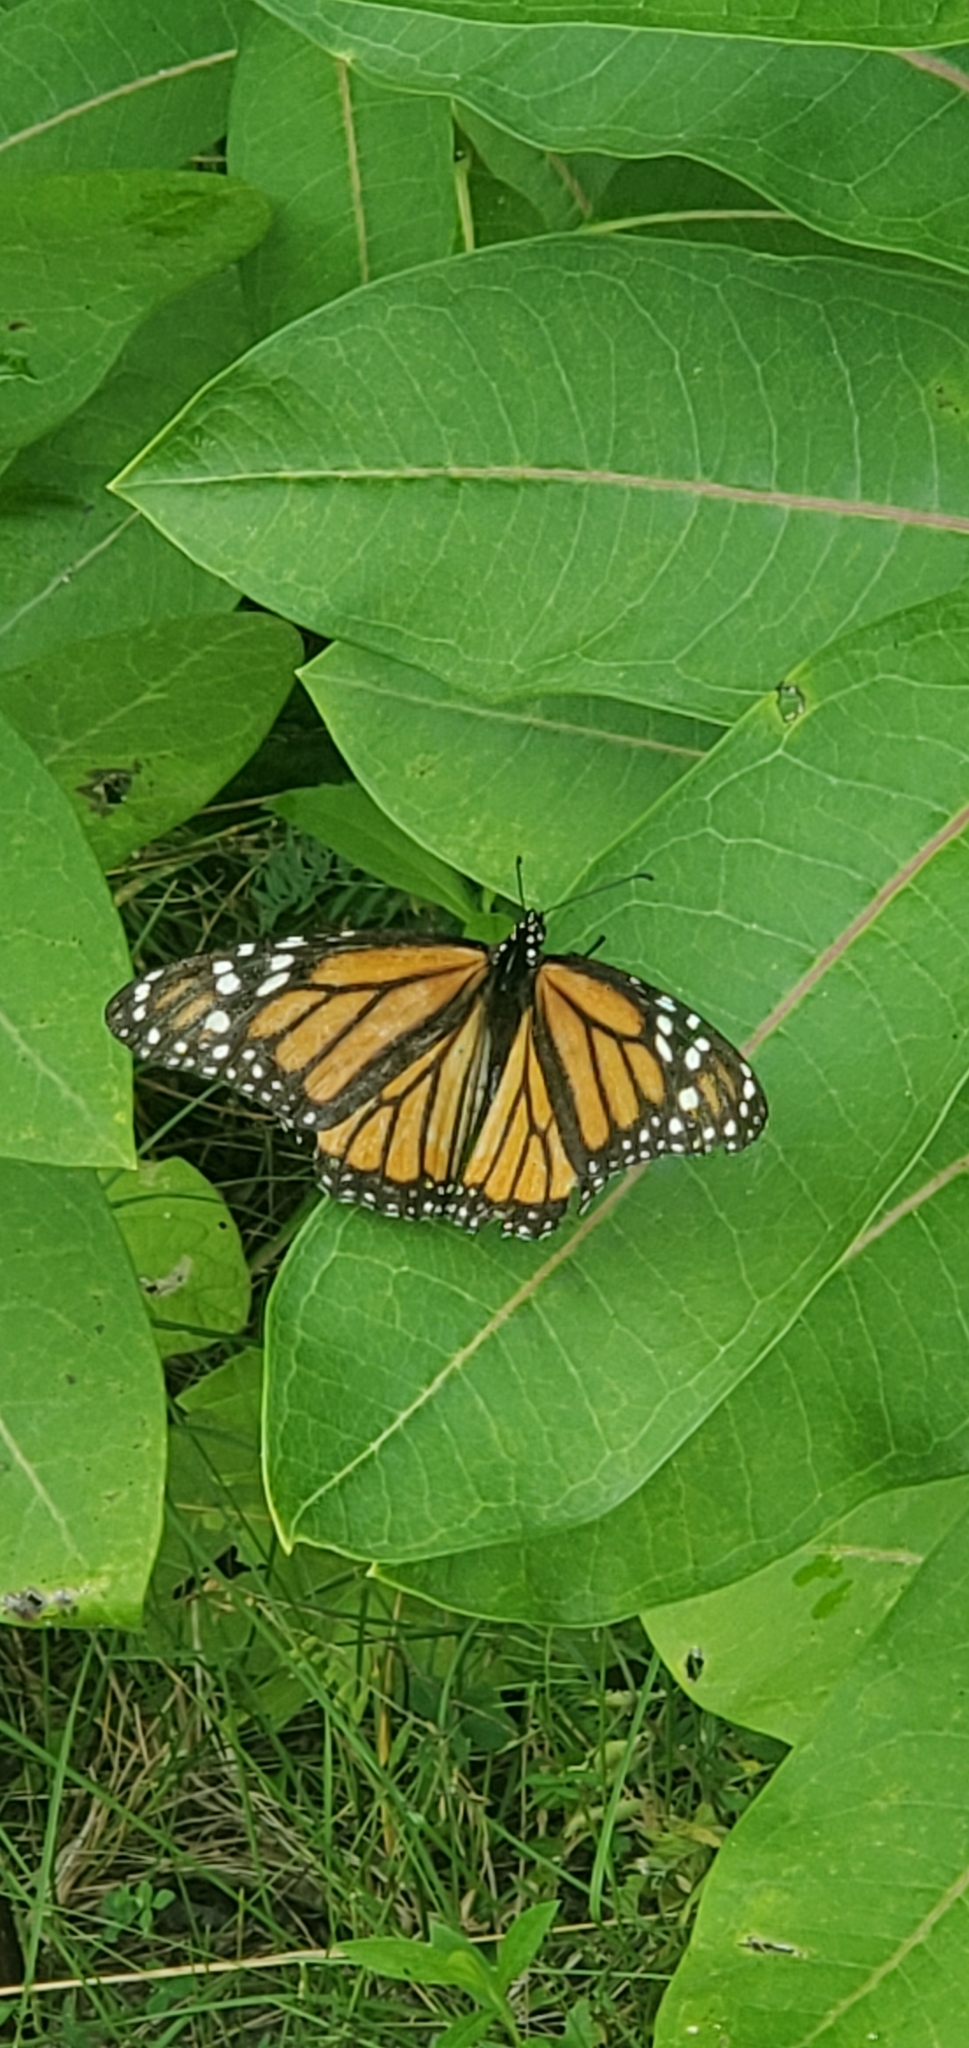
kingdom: Animalia
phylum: Arthropoda
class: Insecta
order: Lepidoptera
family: Nymphalidae
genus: Danaus
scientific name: Danaus plexippus
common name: Monarch
